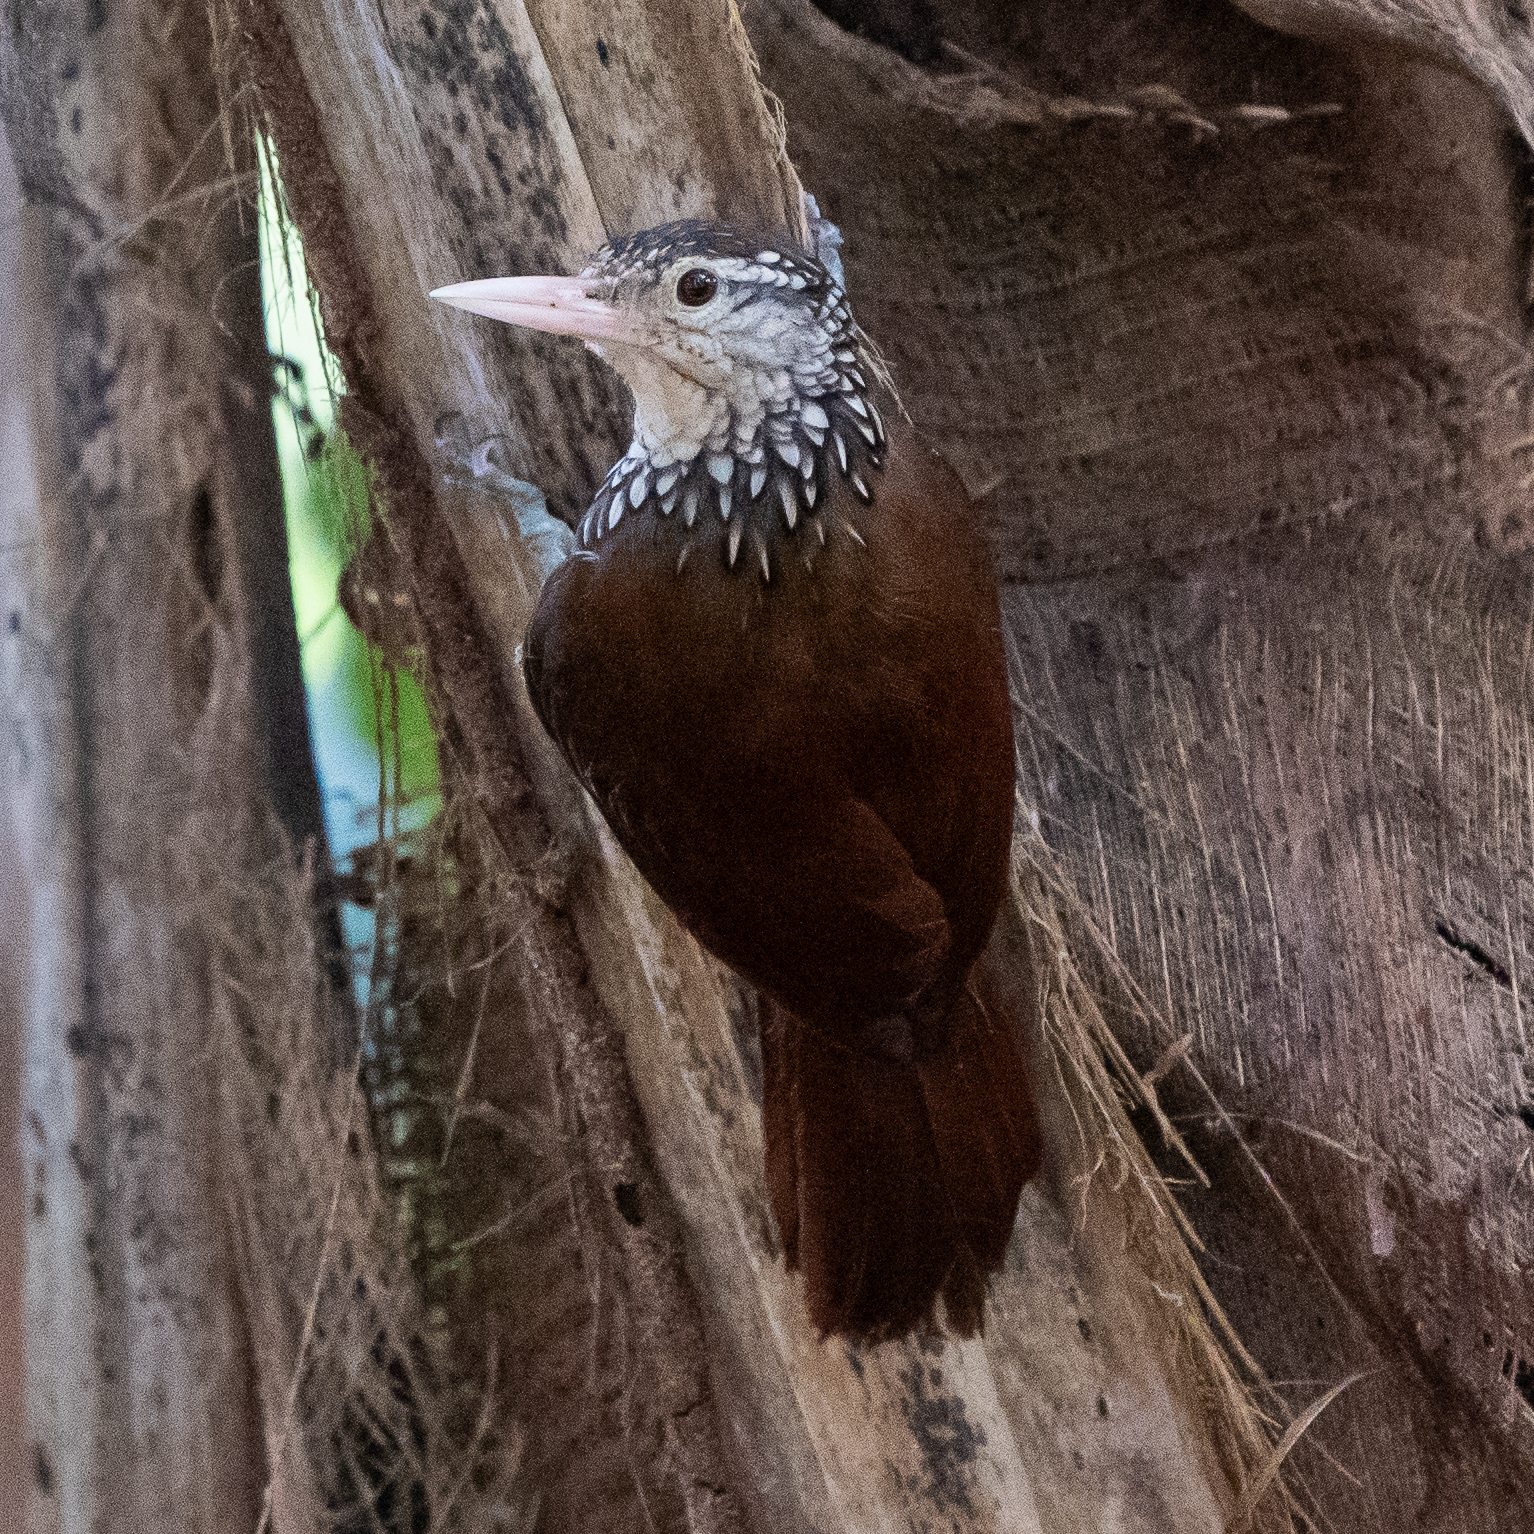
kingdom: Animalia
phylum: Chordata
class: Aves
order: Passeriformes
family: Furnariidae
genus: Xiphorhynchus
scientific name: Xiphorhynchus picus
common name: Straight-billed woodcreeper
